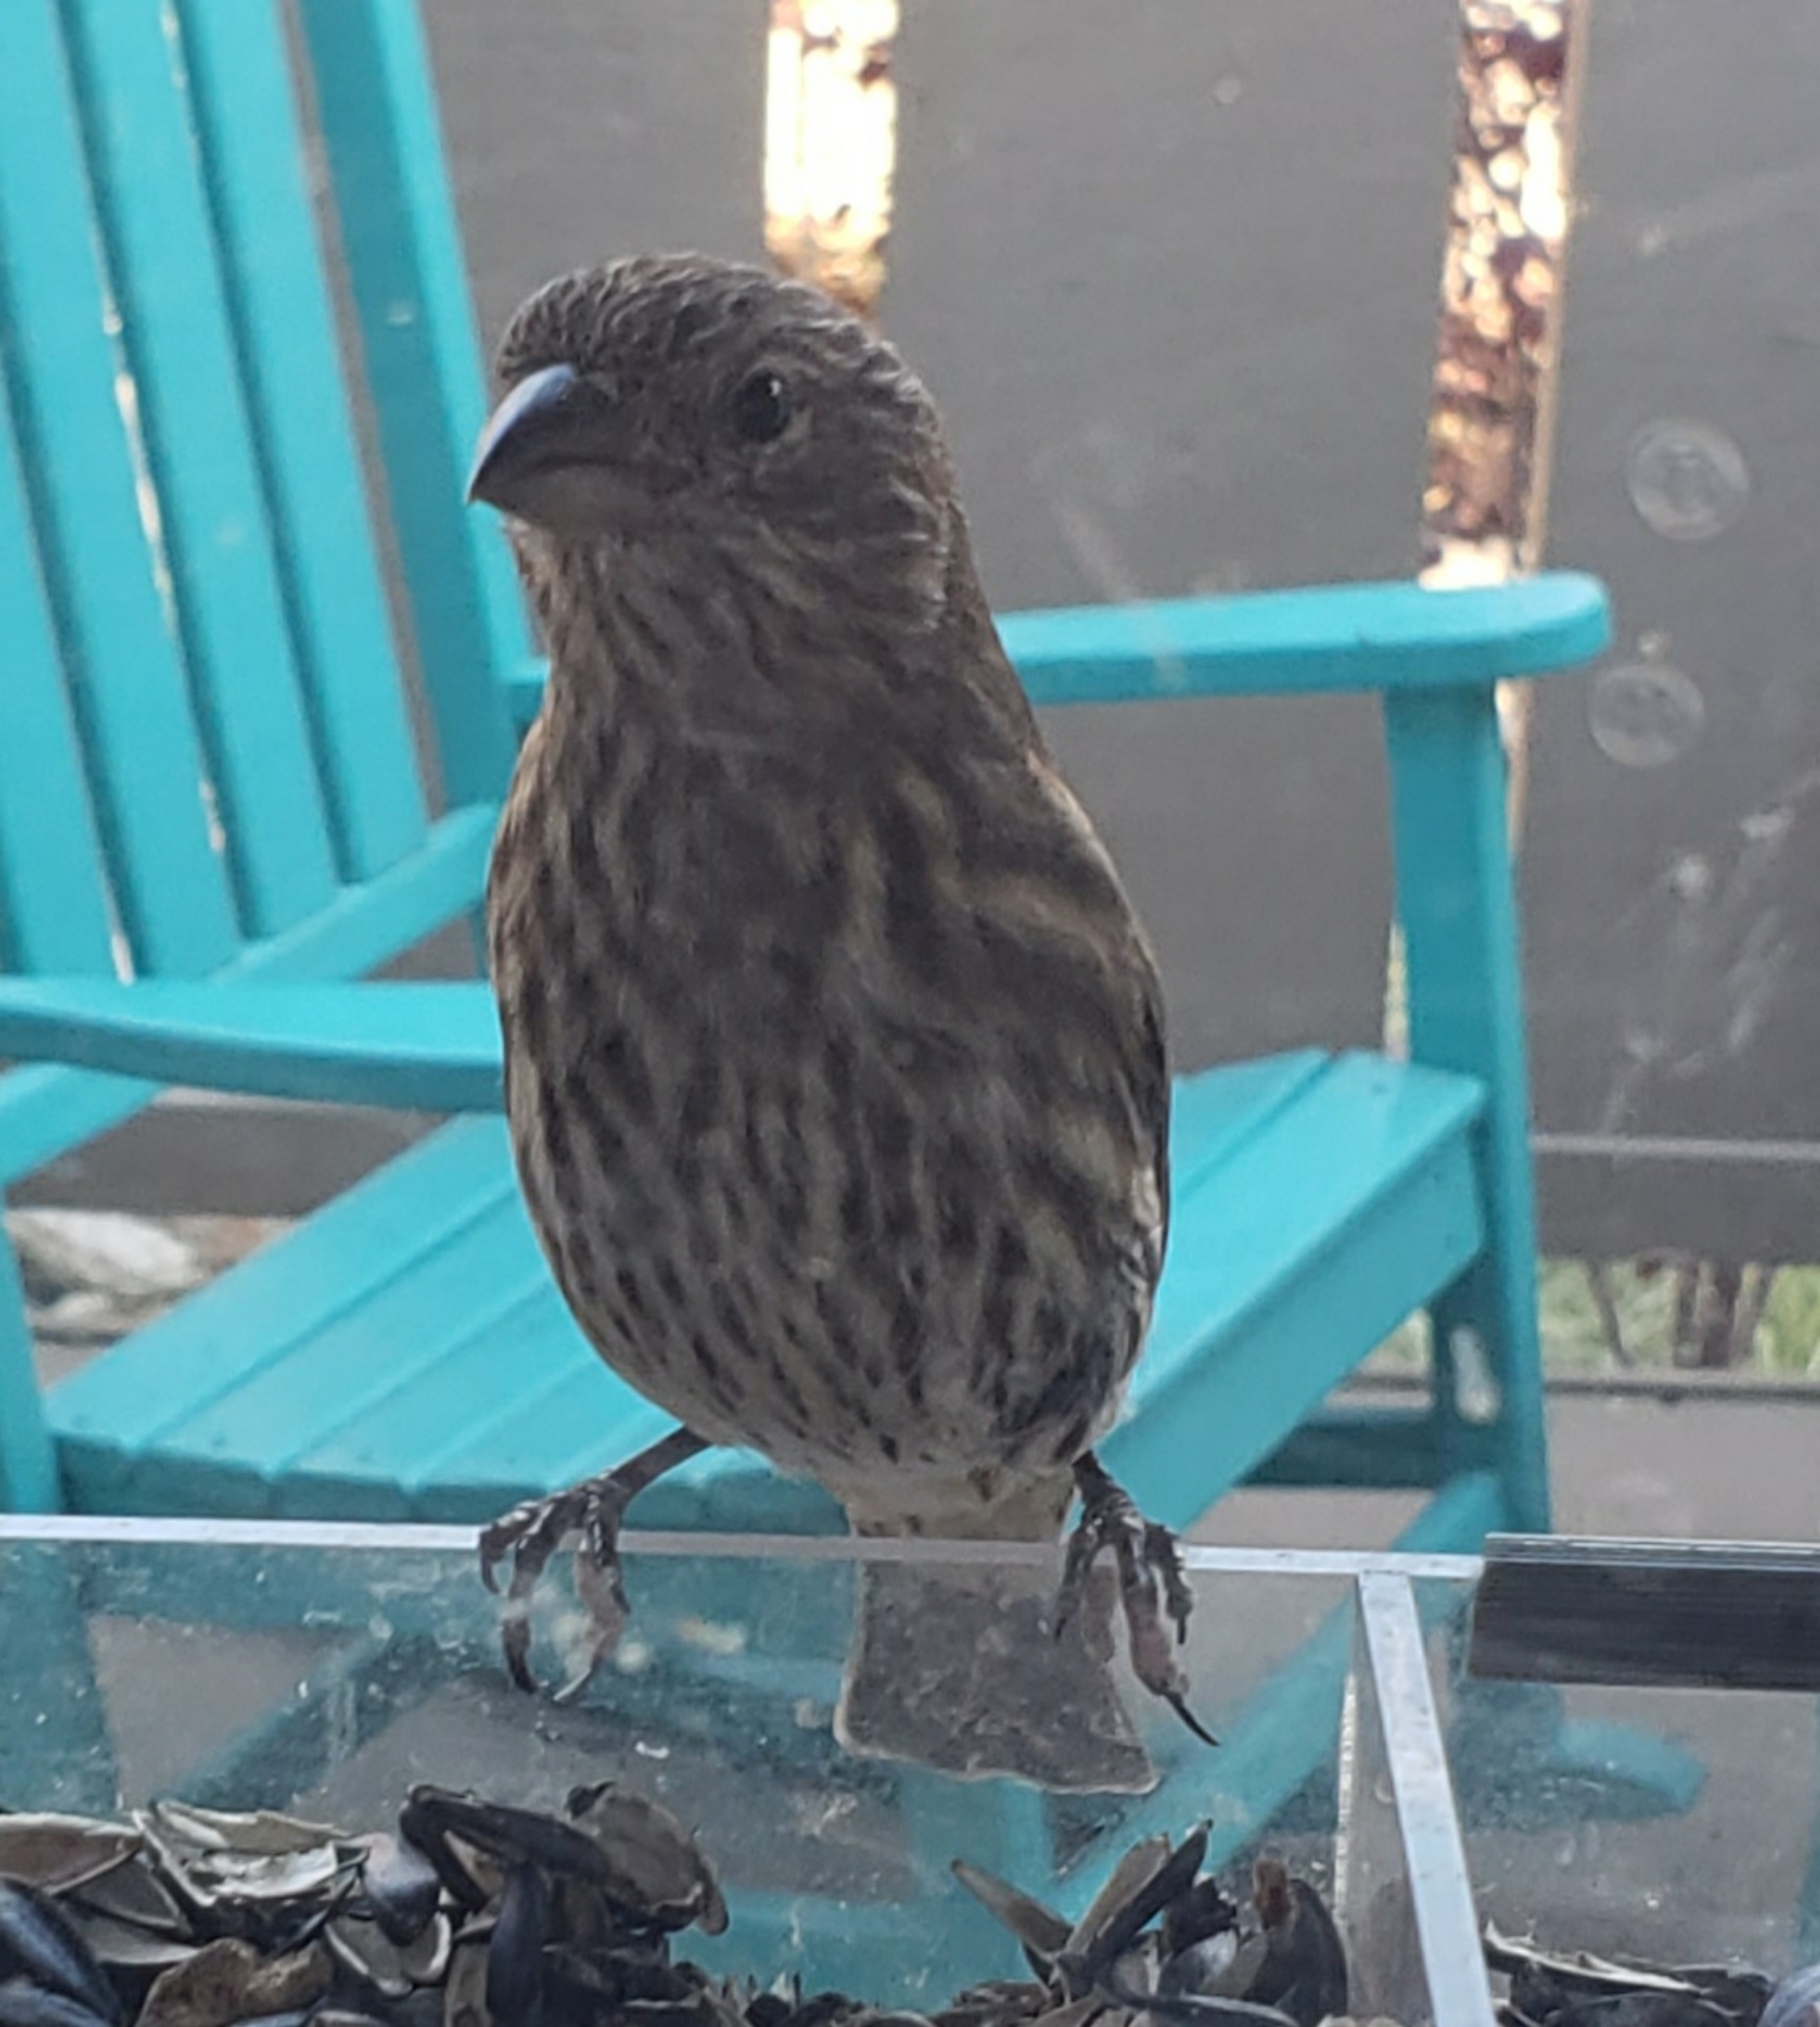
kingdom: Animalia
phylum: Chordata
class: Aves
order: Passeriformes
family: Fringillidae
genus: Haemorhous
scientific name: Haemorhous mexicanus
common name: House finch
